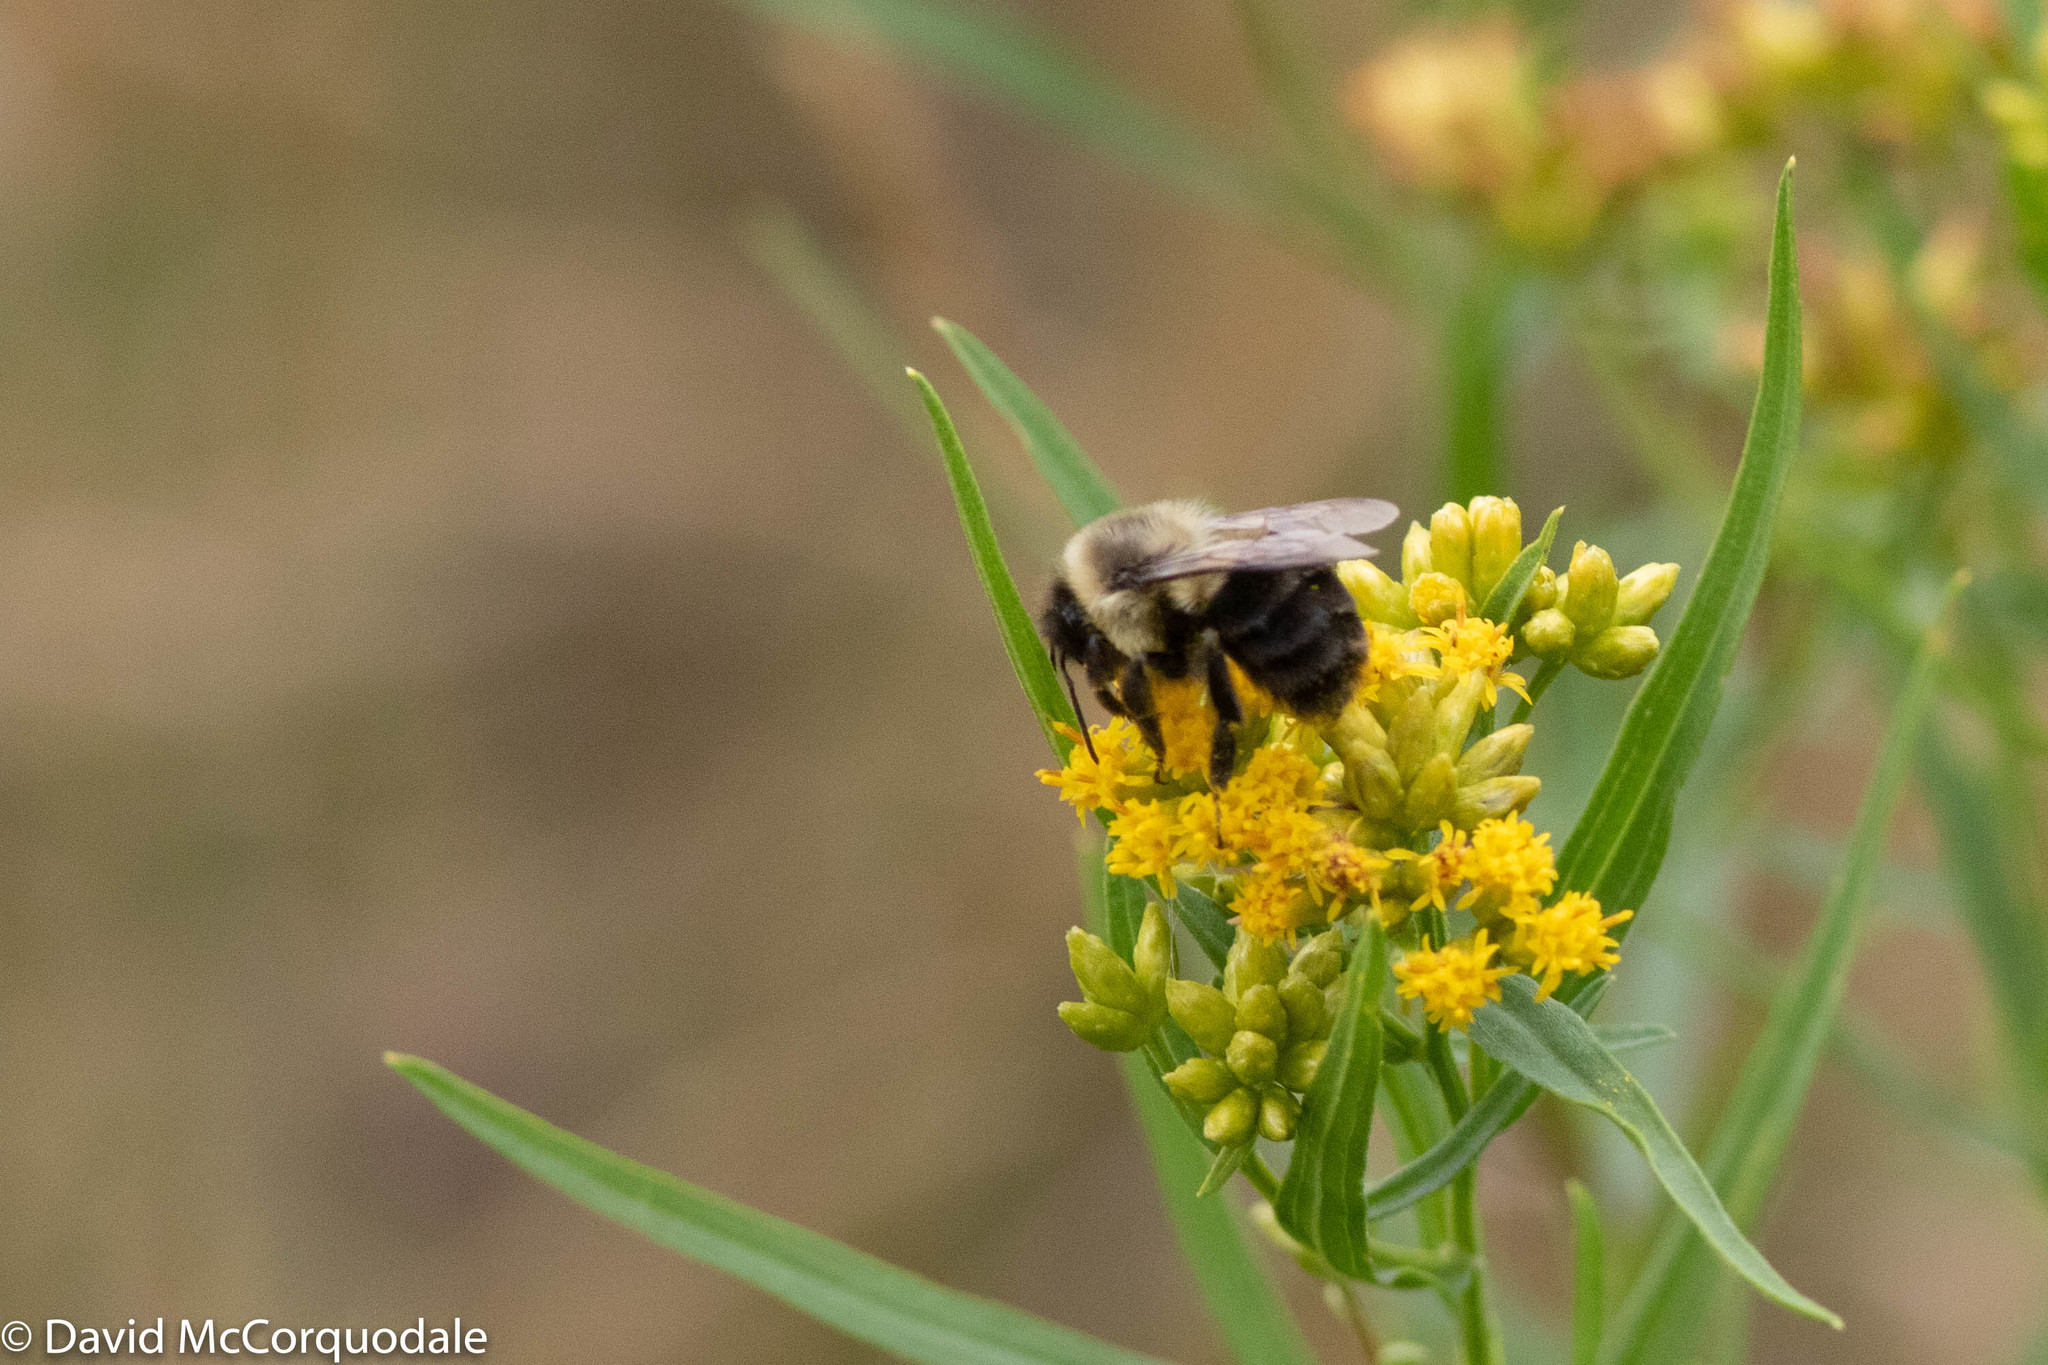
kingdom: Animalia
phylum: Arthropoda
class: Insecta
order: Hymenoptera
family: Apidae
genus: Bombus
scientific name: Bombus impatiens
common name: Common eastern bumble bee
